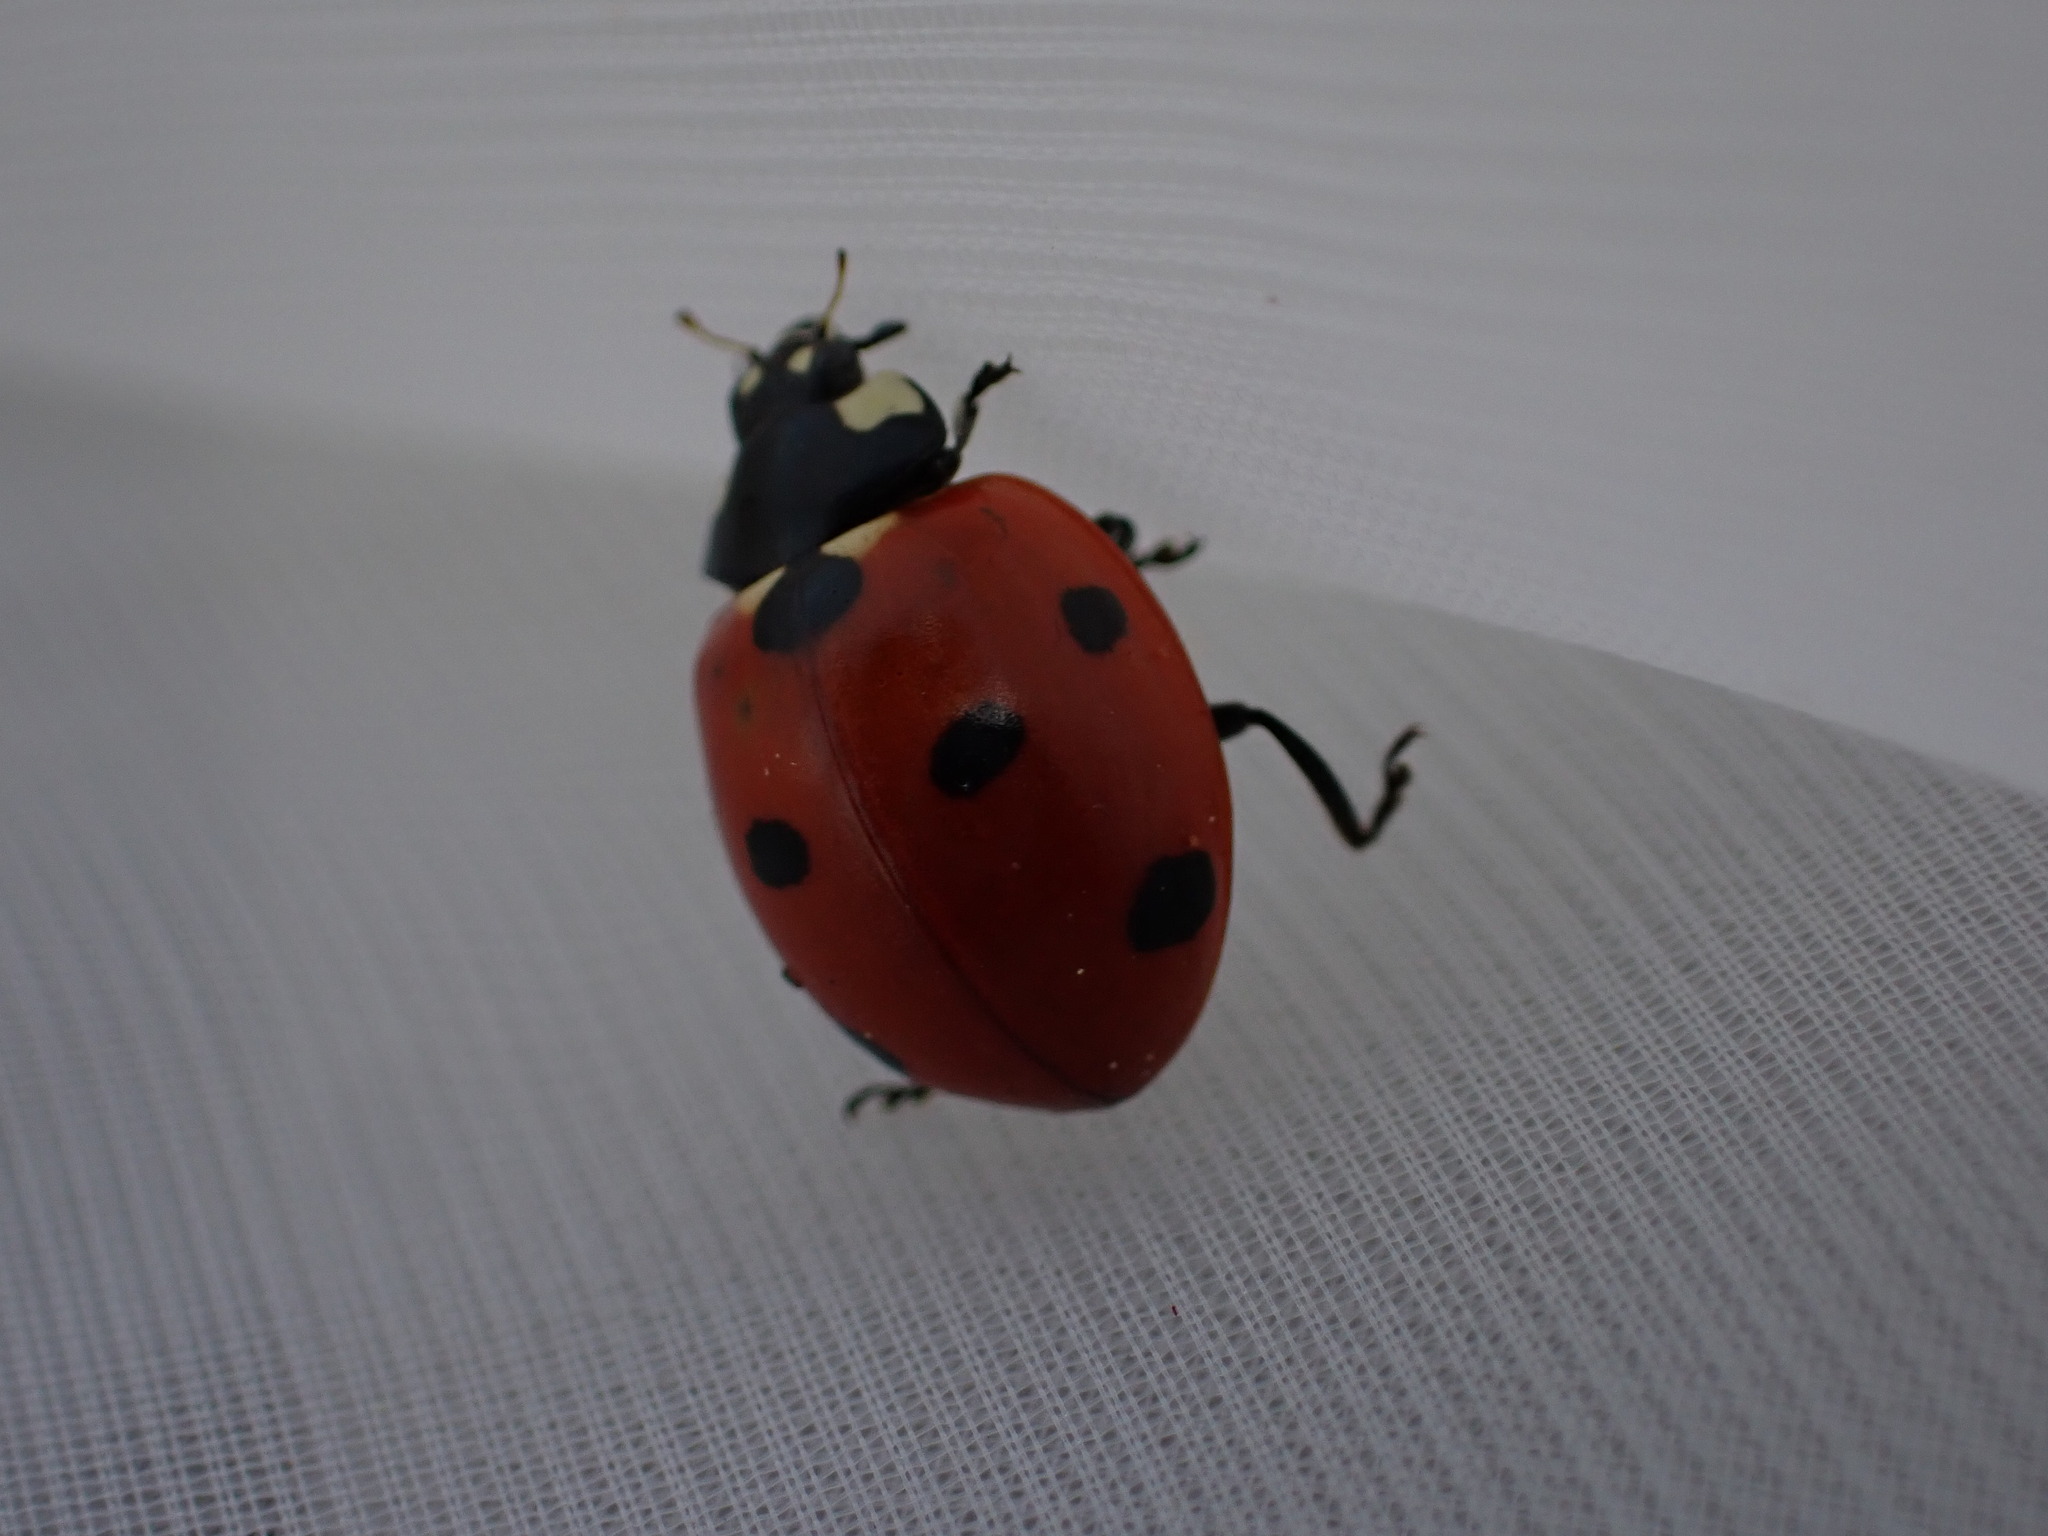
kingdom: Animalia
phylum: Arthropoda
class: Insecta
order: Coleoptera
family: Coccinellidae
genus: Coccinella
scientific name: Coccinella septempunctata
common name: Sevenspotted lady beetle
